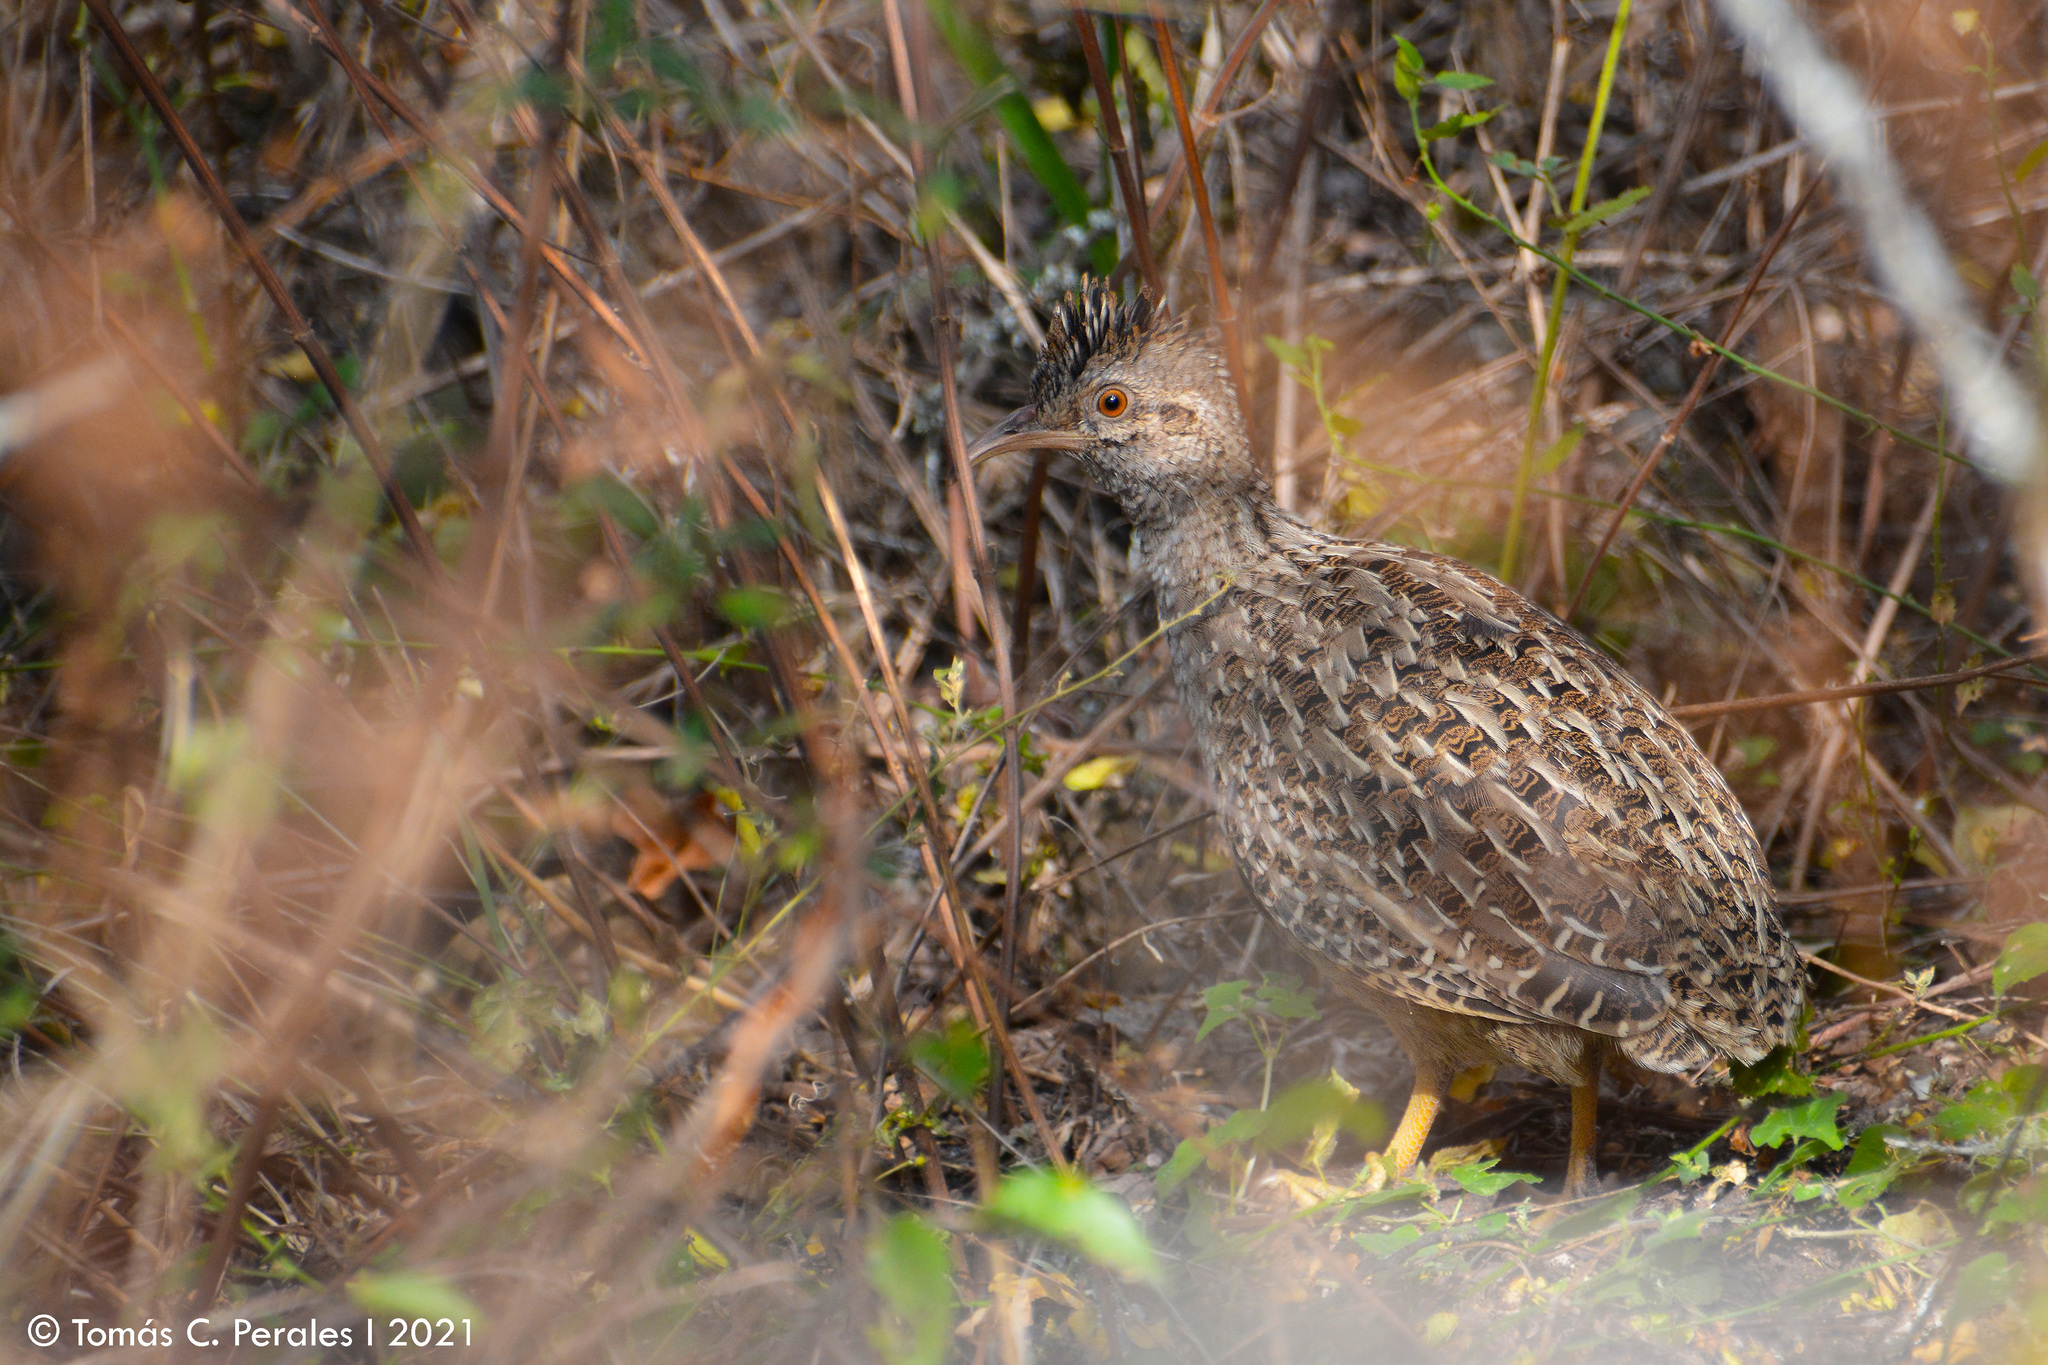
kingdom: Animalia
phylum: Chordata
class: Aves
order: Tinamiformes
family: Tinamidae
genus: Nothoprocta
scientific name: Nothoprocta pentlandii
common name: Andean tinamou
